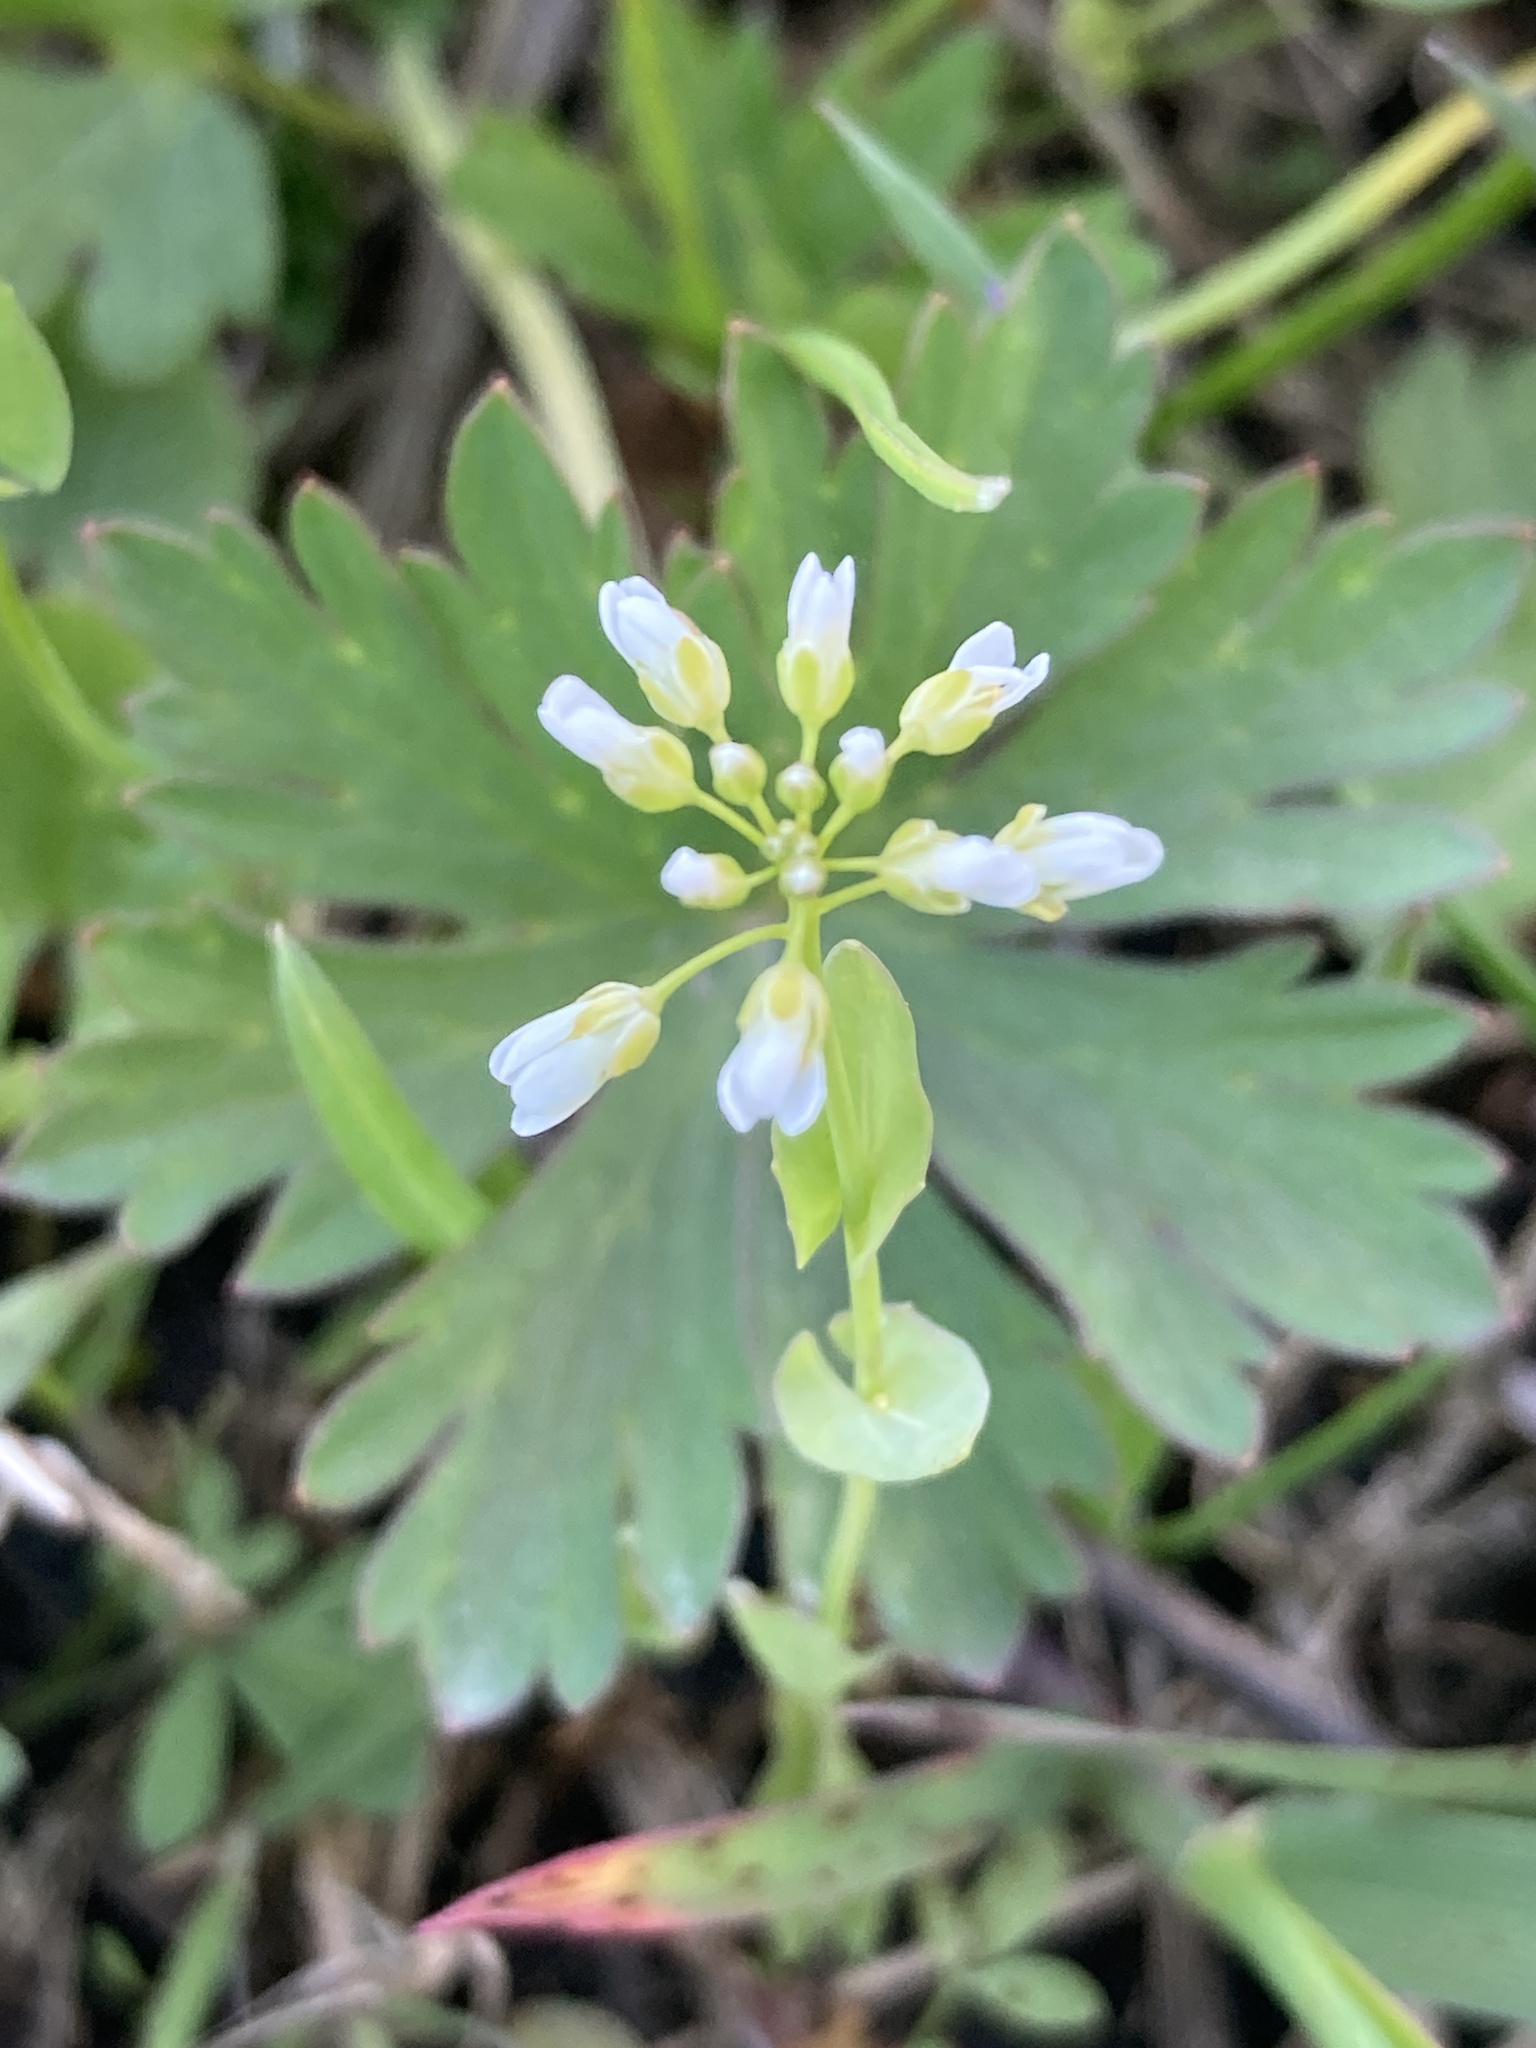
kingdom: Plantae
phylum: Tracheophyta
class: Magnoliopsida
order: Brassicales
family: Brassicaceae
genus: Noccaea
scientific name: Noccaea perfoliata
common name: Perfoliate pennycress
